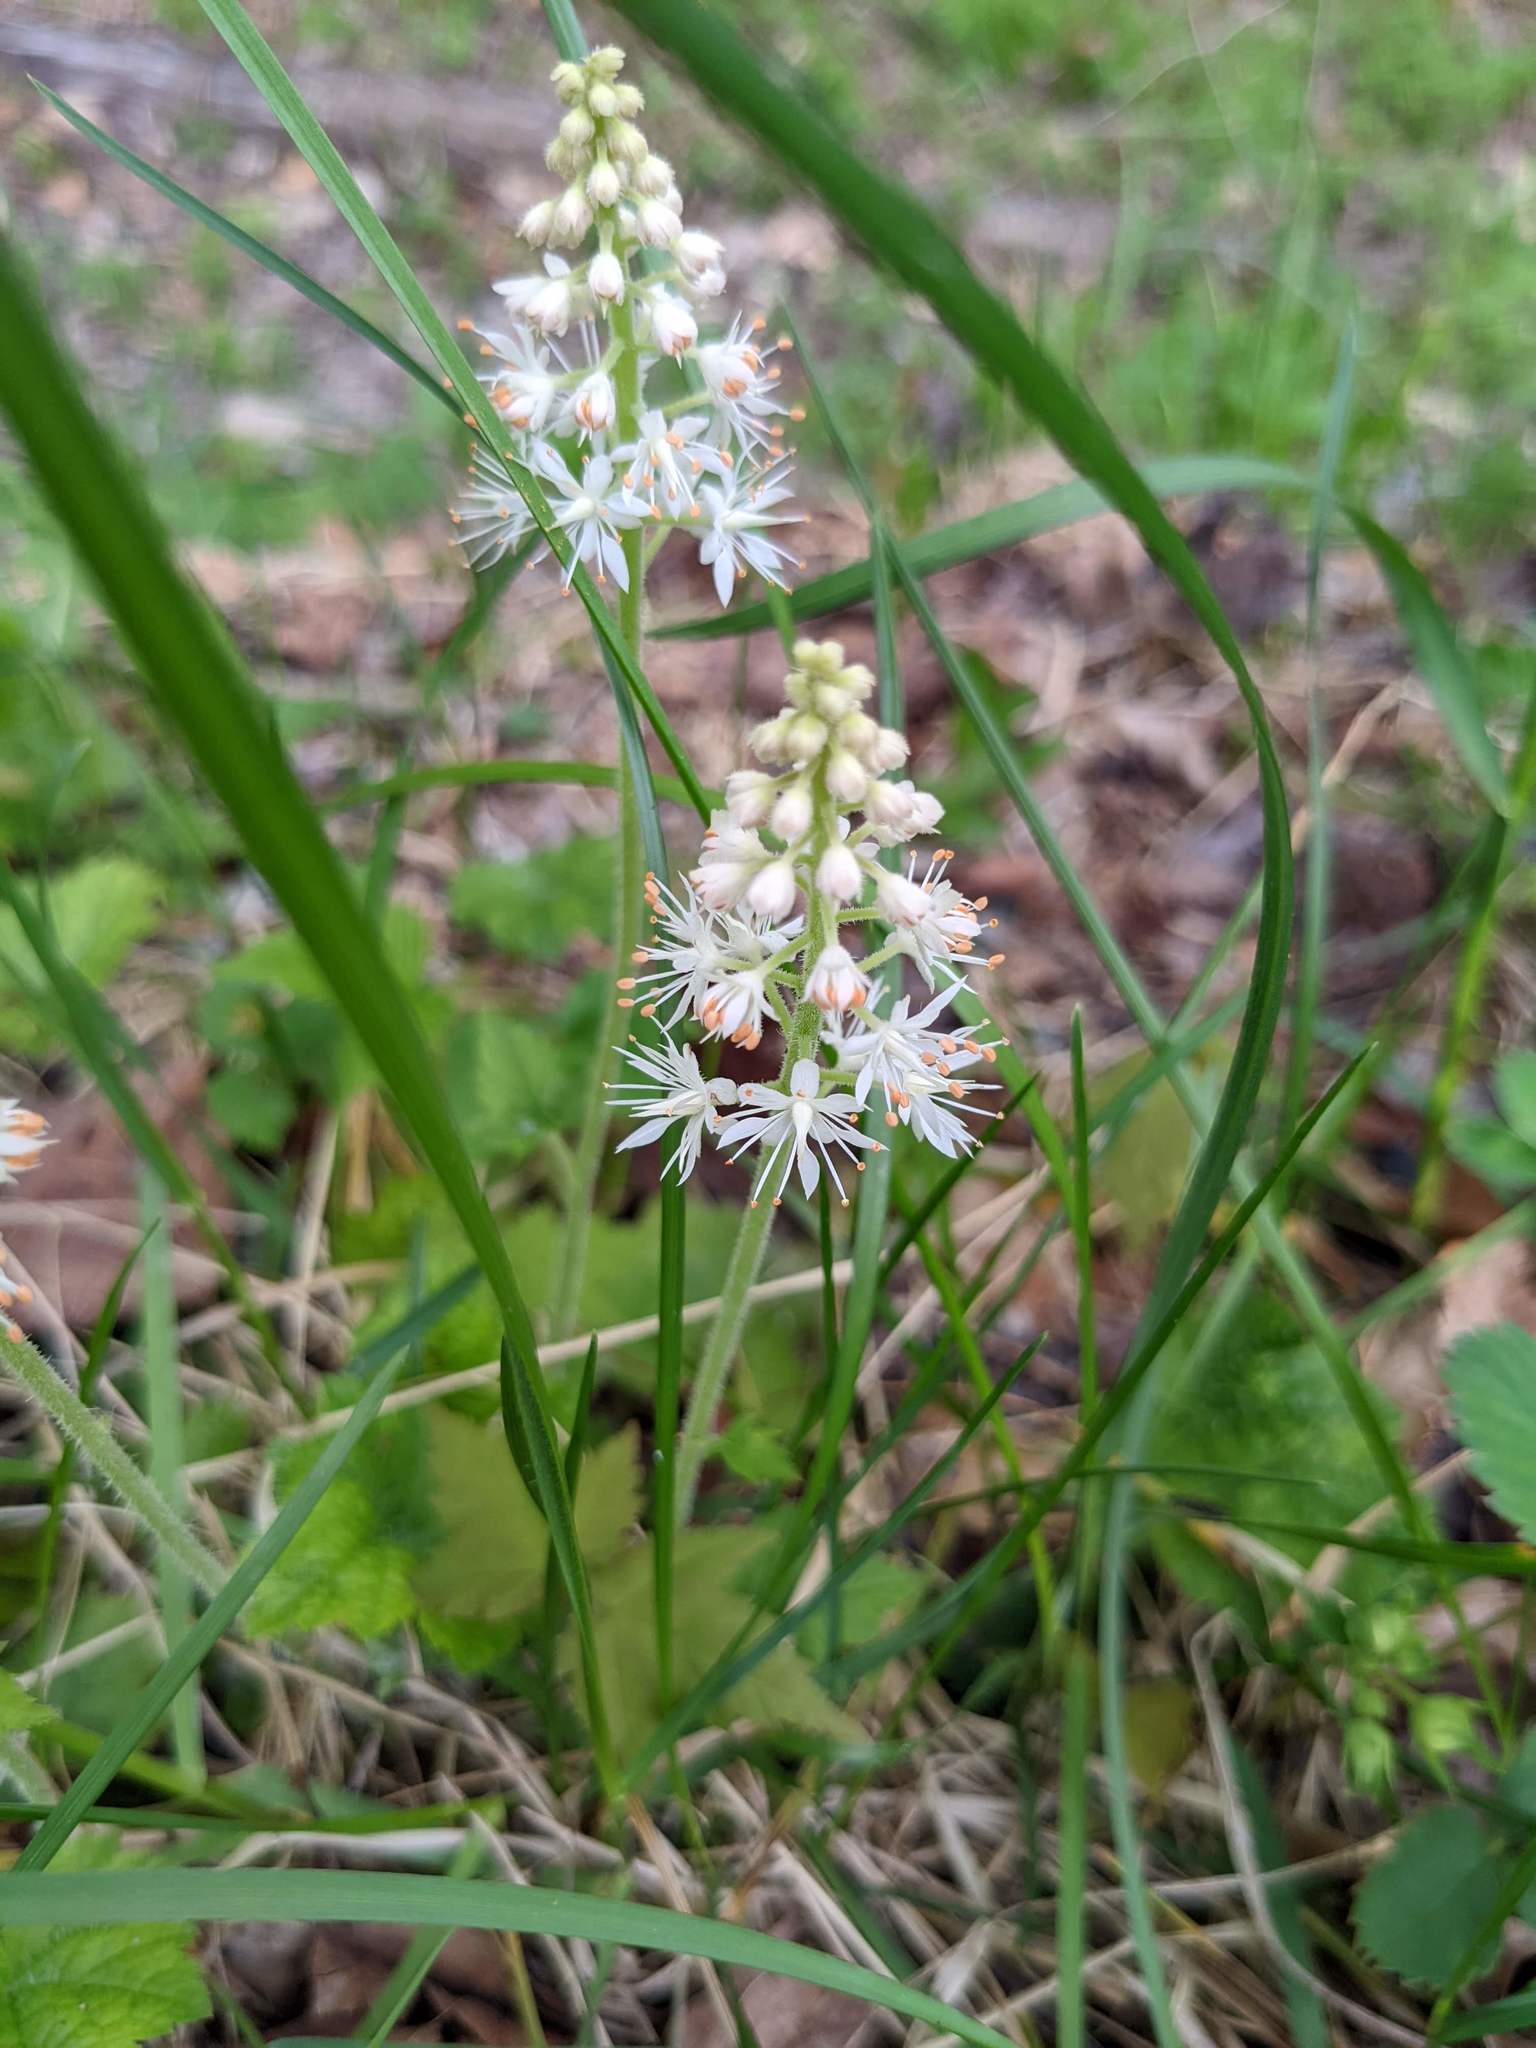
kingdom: Plantae
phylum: Tracheophyta
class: Magnoliopsida
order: Saxifragales
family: Saxifragaceae
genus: Tiarella
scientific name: Tiarella stolonifera
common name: Stoloniferous foamflower
